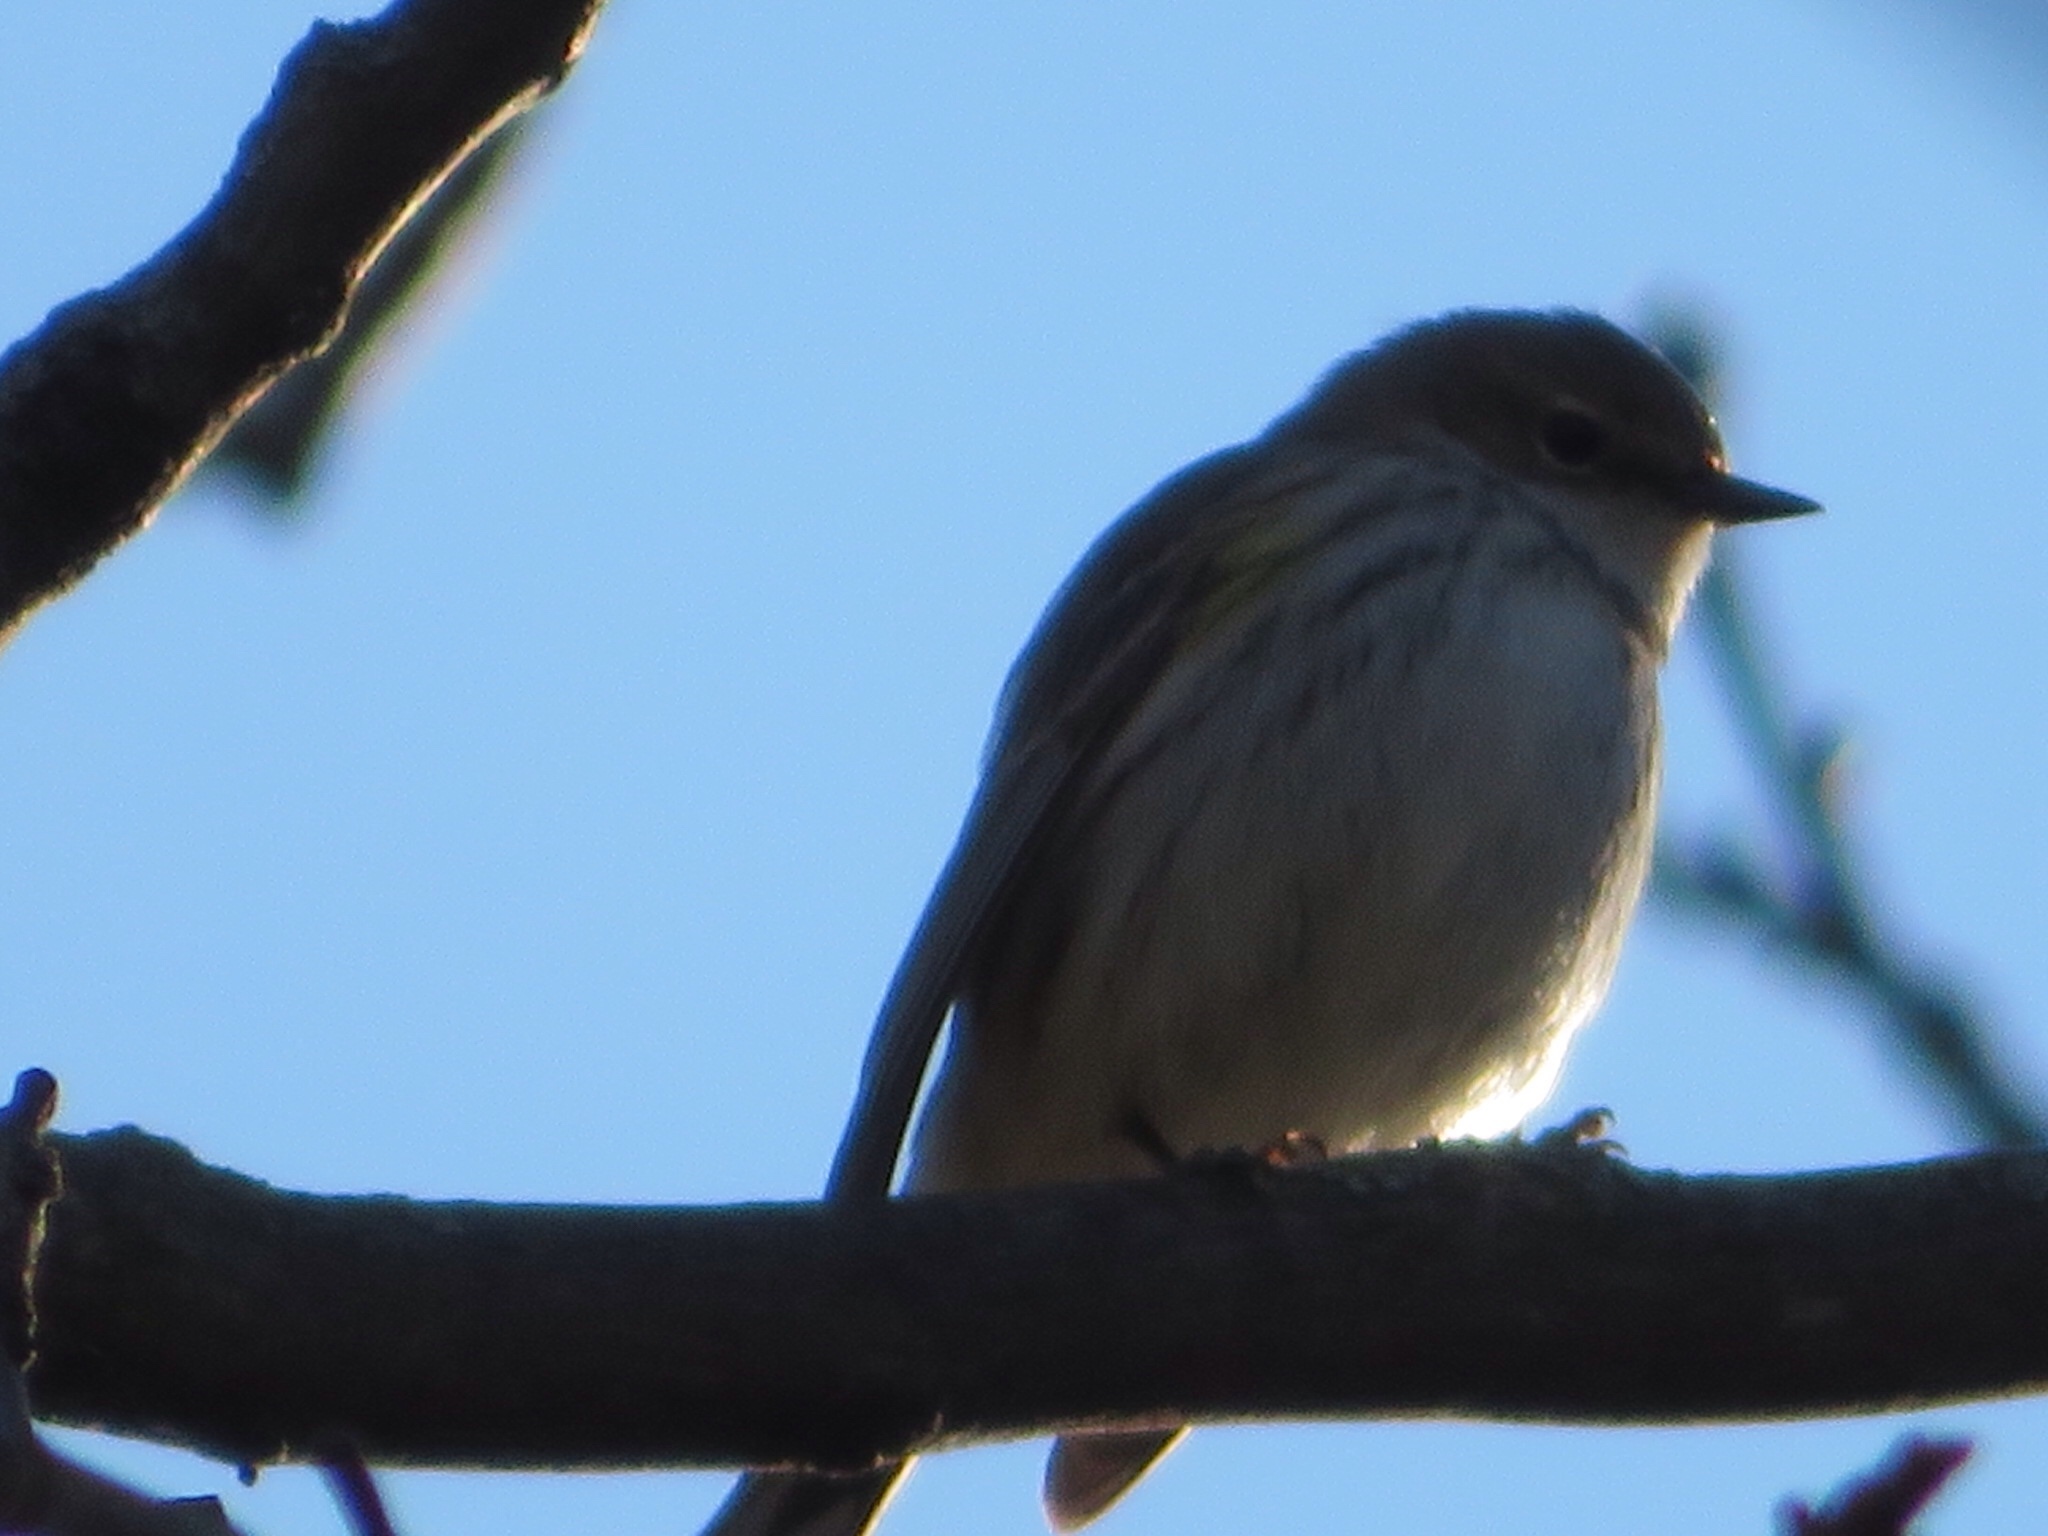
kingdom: Animalia
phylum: Chordata
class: Aves
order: Passeriformes
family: Parulidae
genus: Setophaga
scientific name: Setophaga coronata
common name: Myrtle warbler
